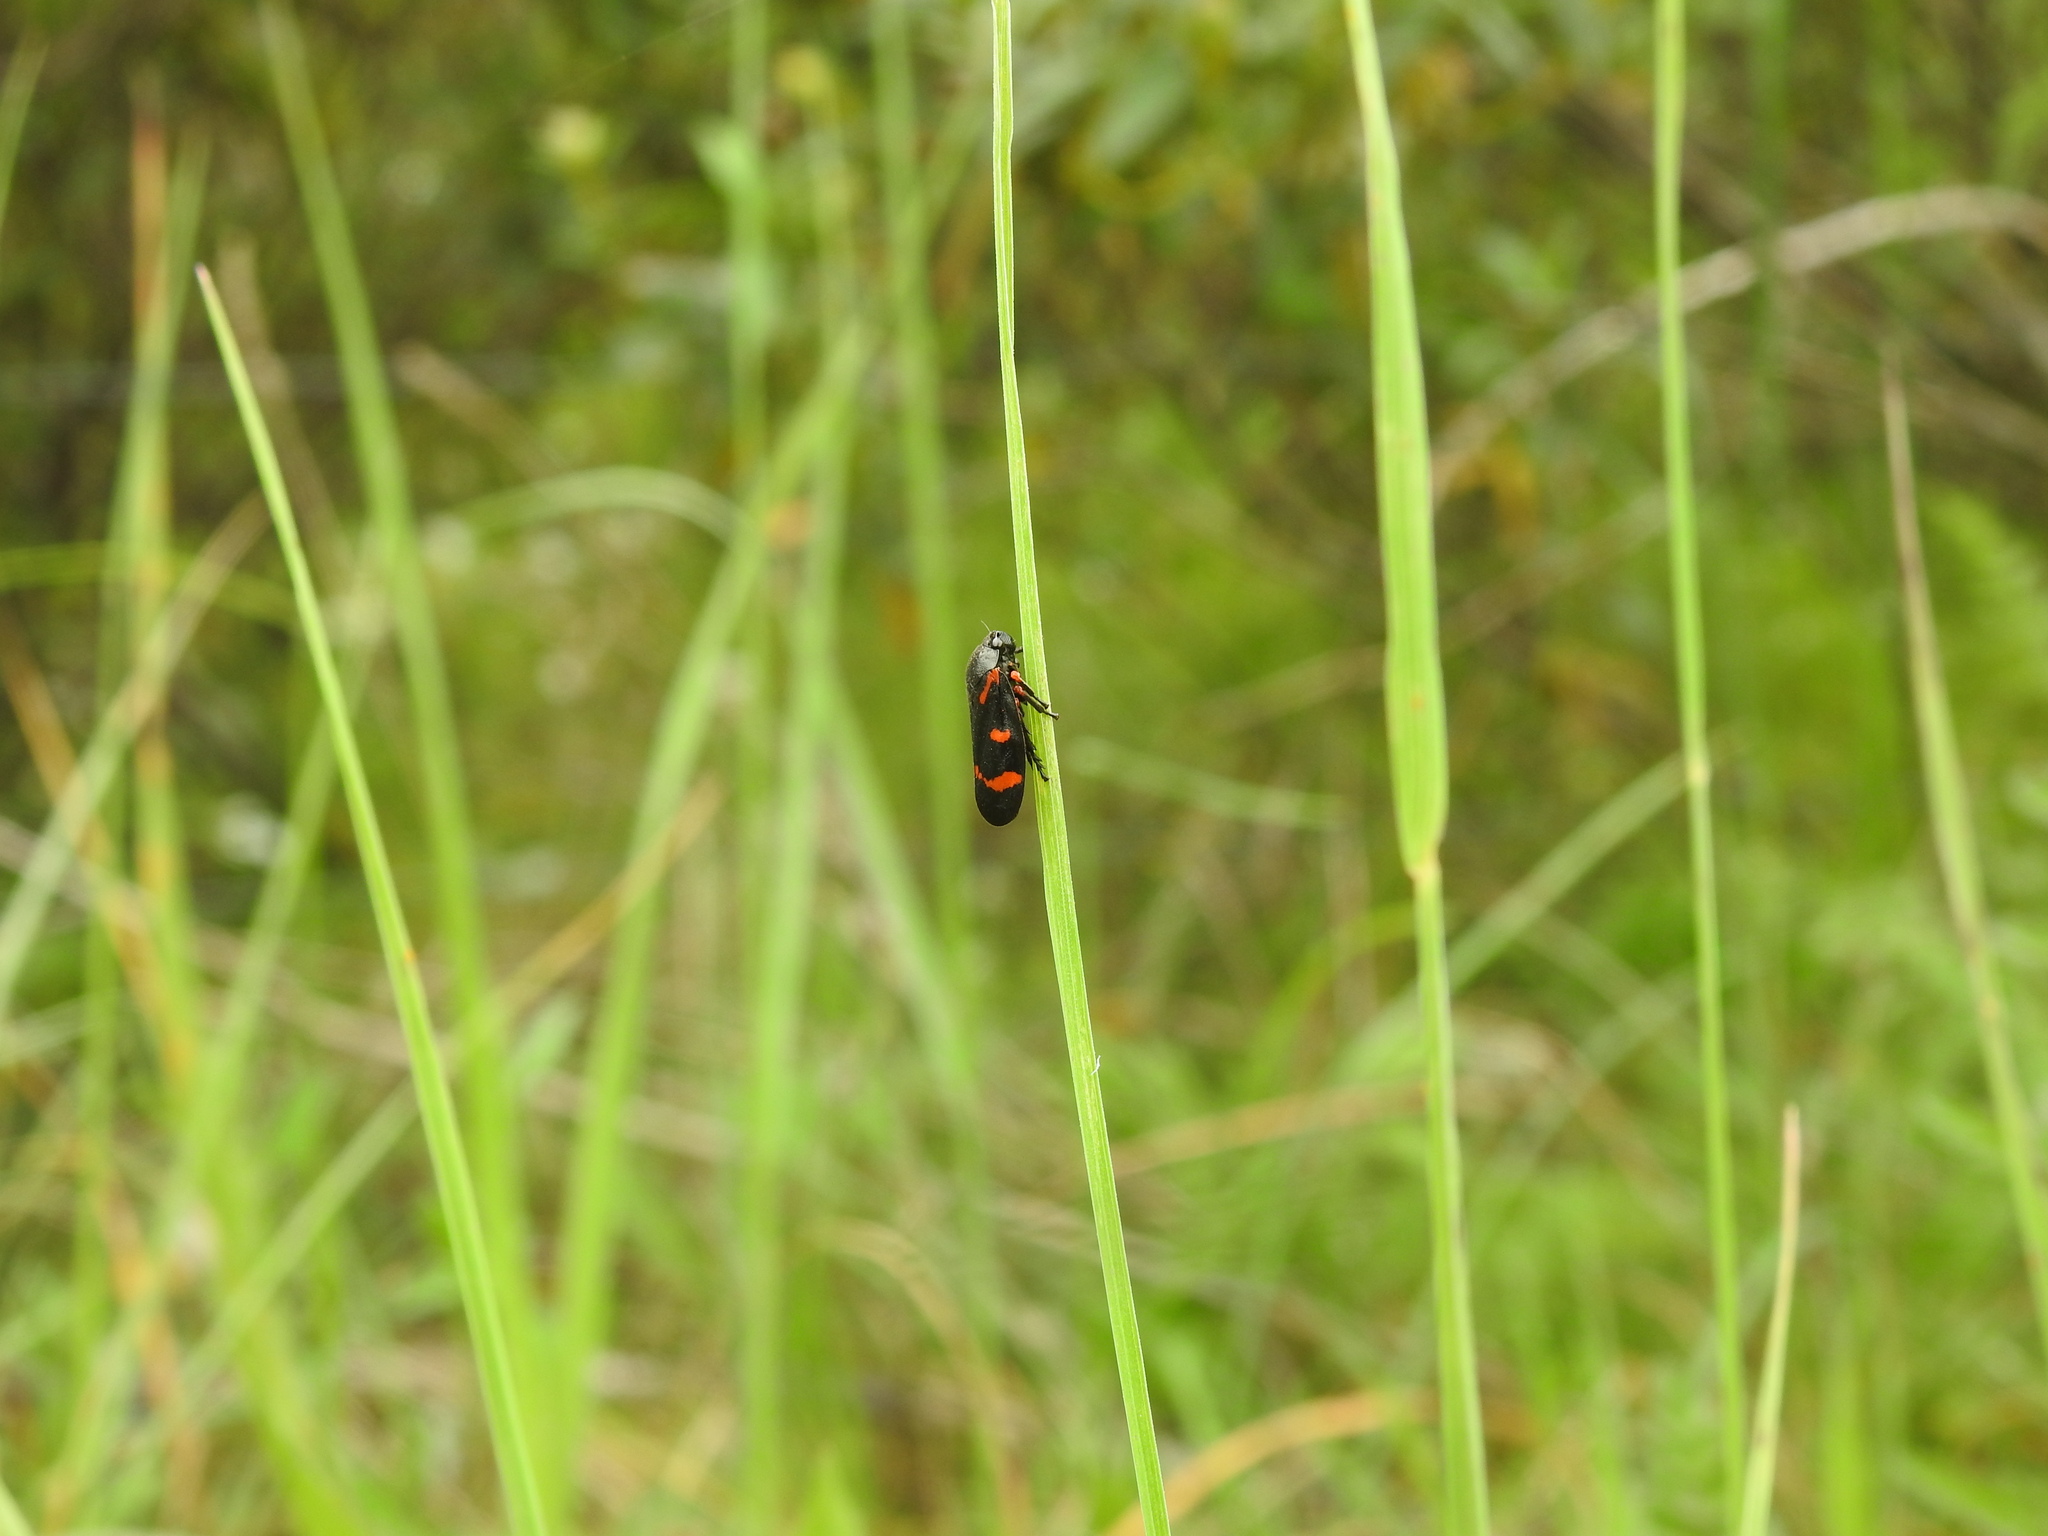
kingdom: Animalia
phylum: Arthropoda
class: Insecta
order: Hemiptera
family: Cercopidae
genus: Cercopis
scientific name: Cercopis intermedia
